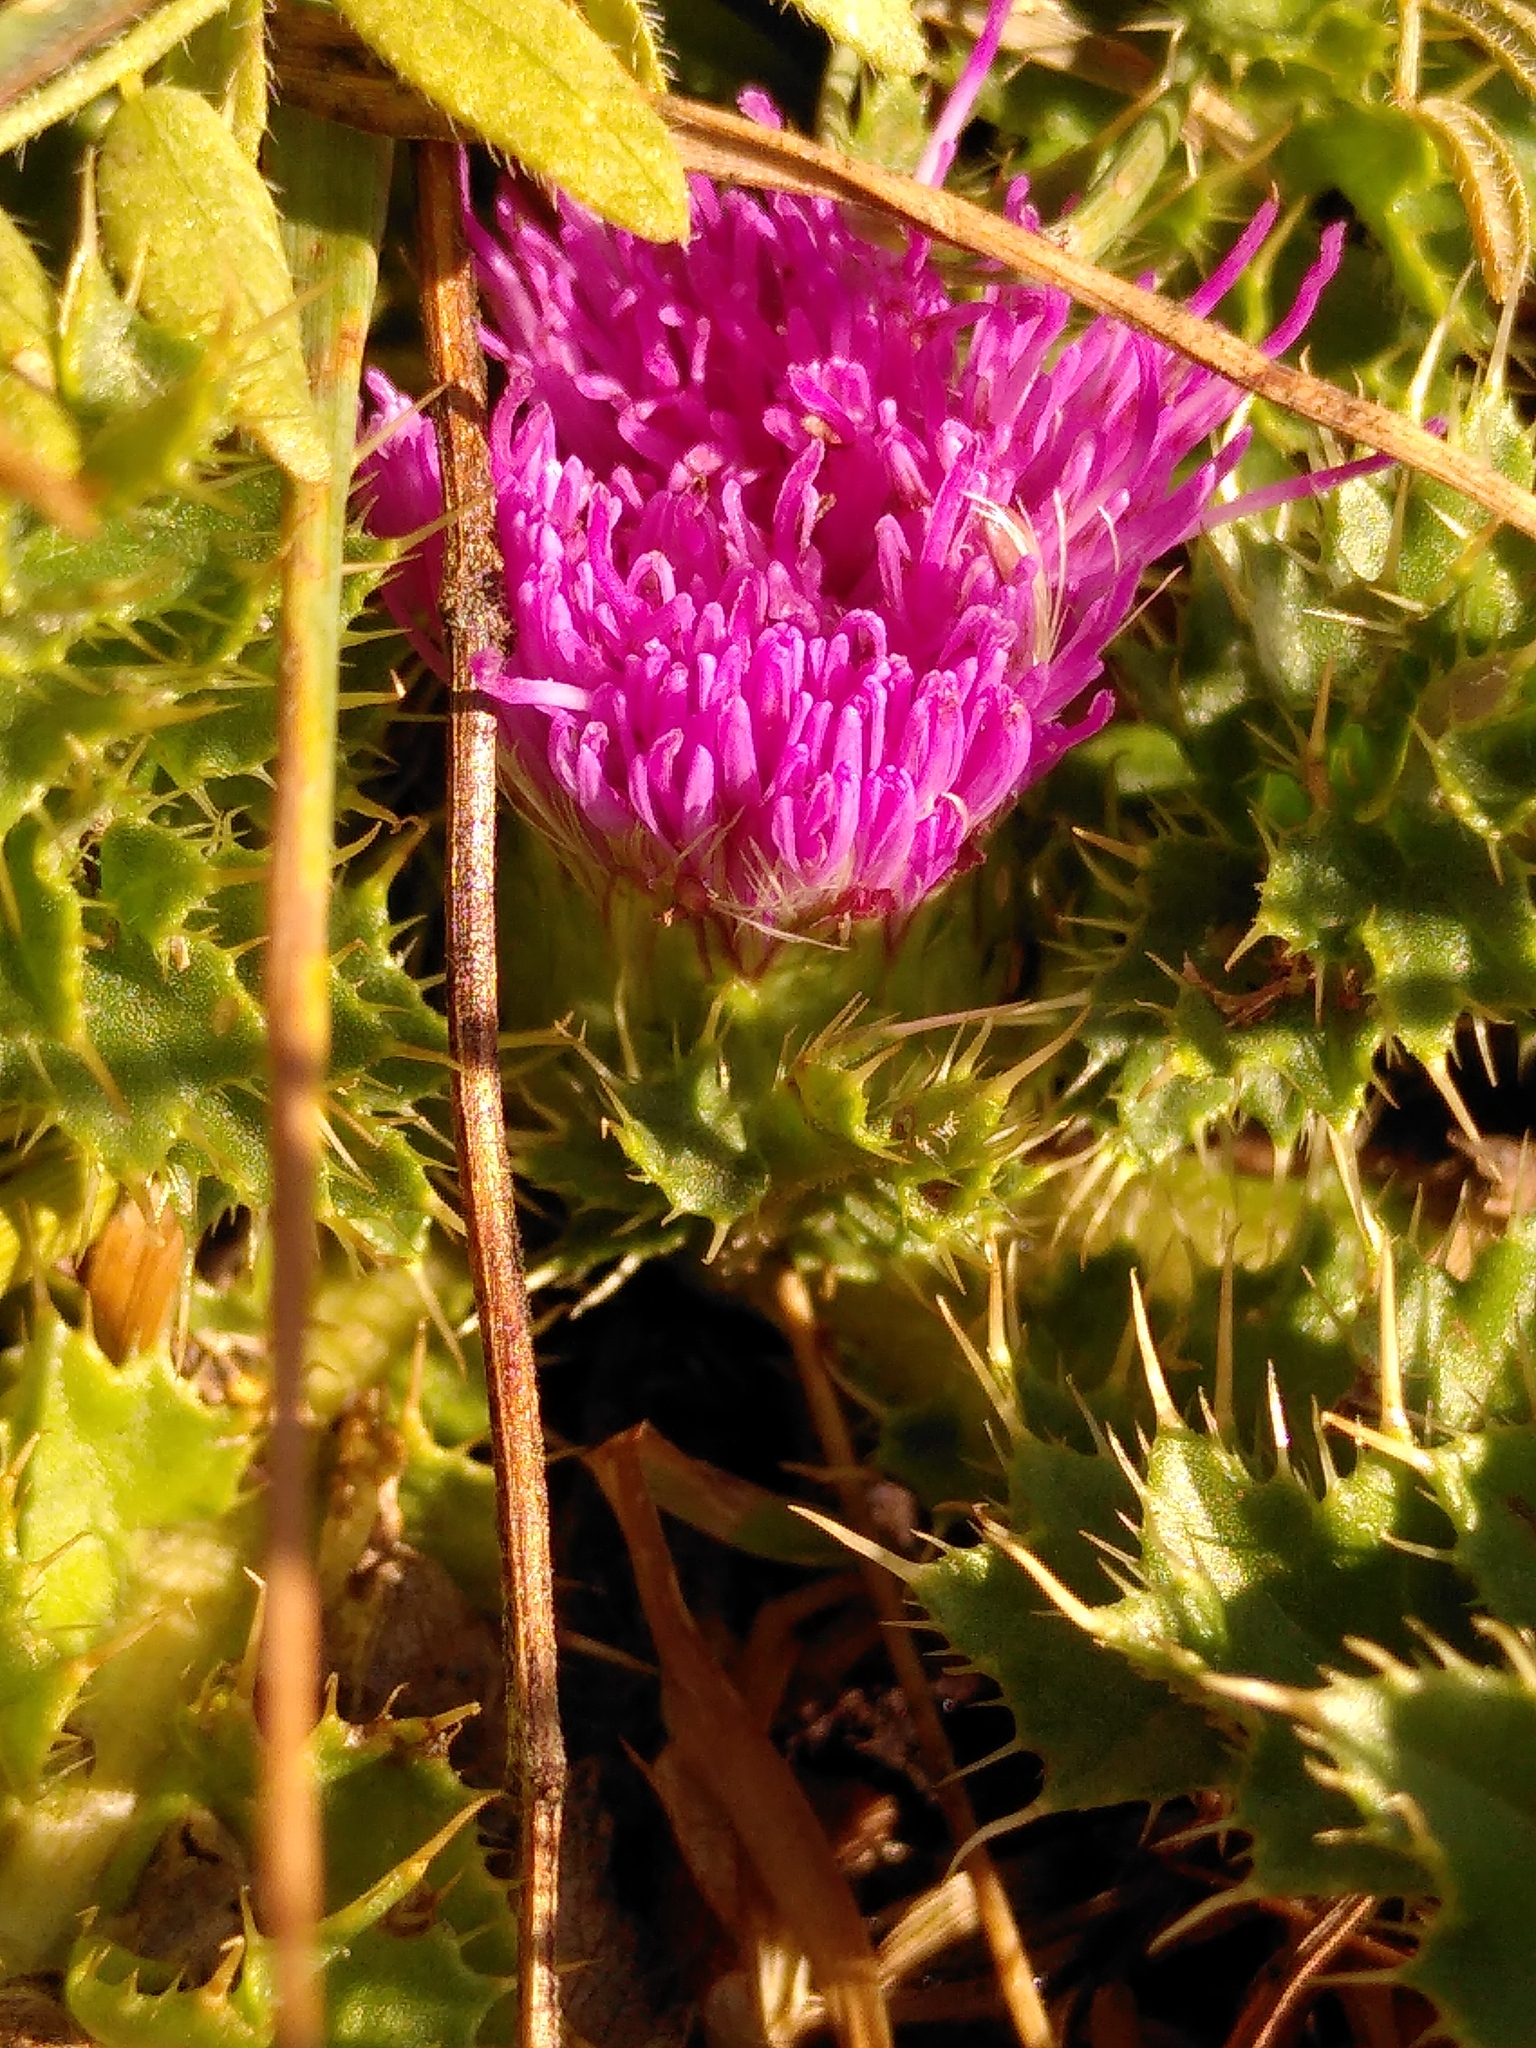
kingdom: Plantae
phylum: Tracheophyta
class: Magnoliopsida
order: Asterales
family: Asteraceae
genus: Cirsium
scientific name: Cirsium acaulon
